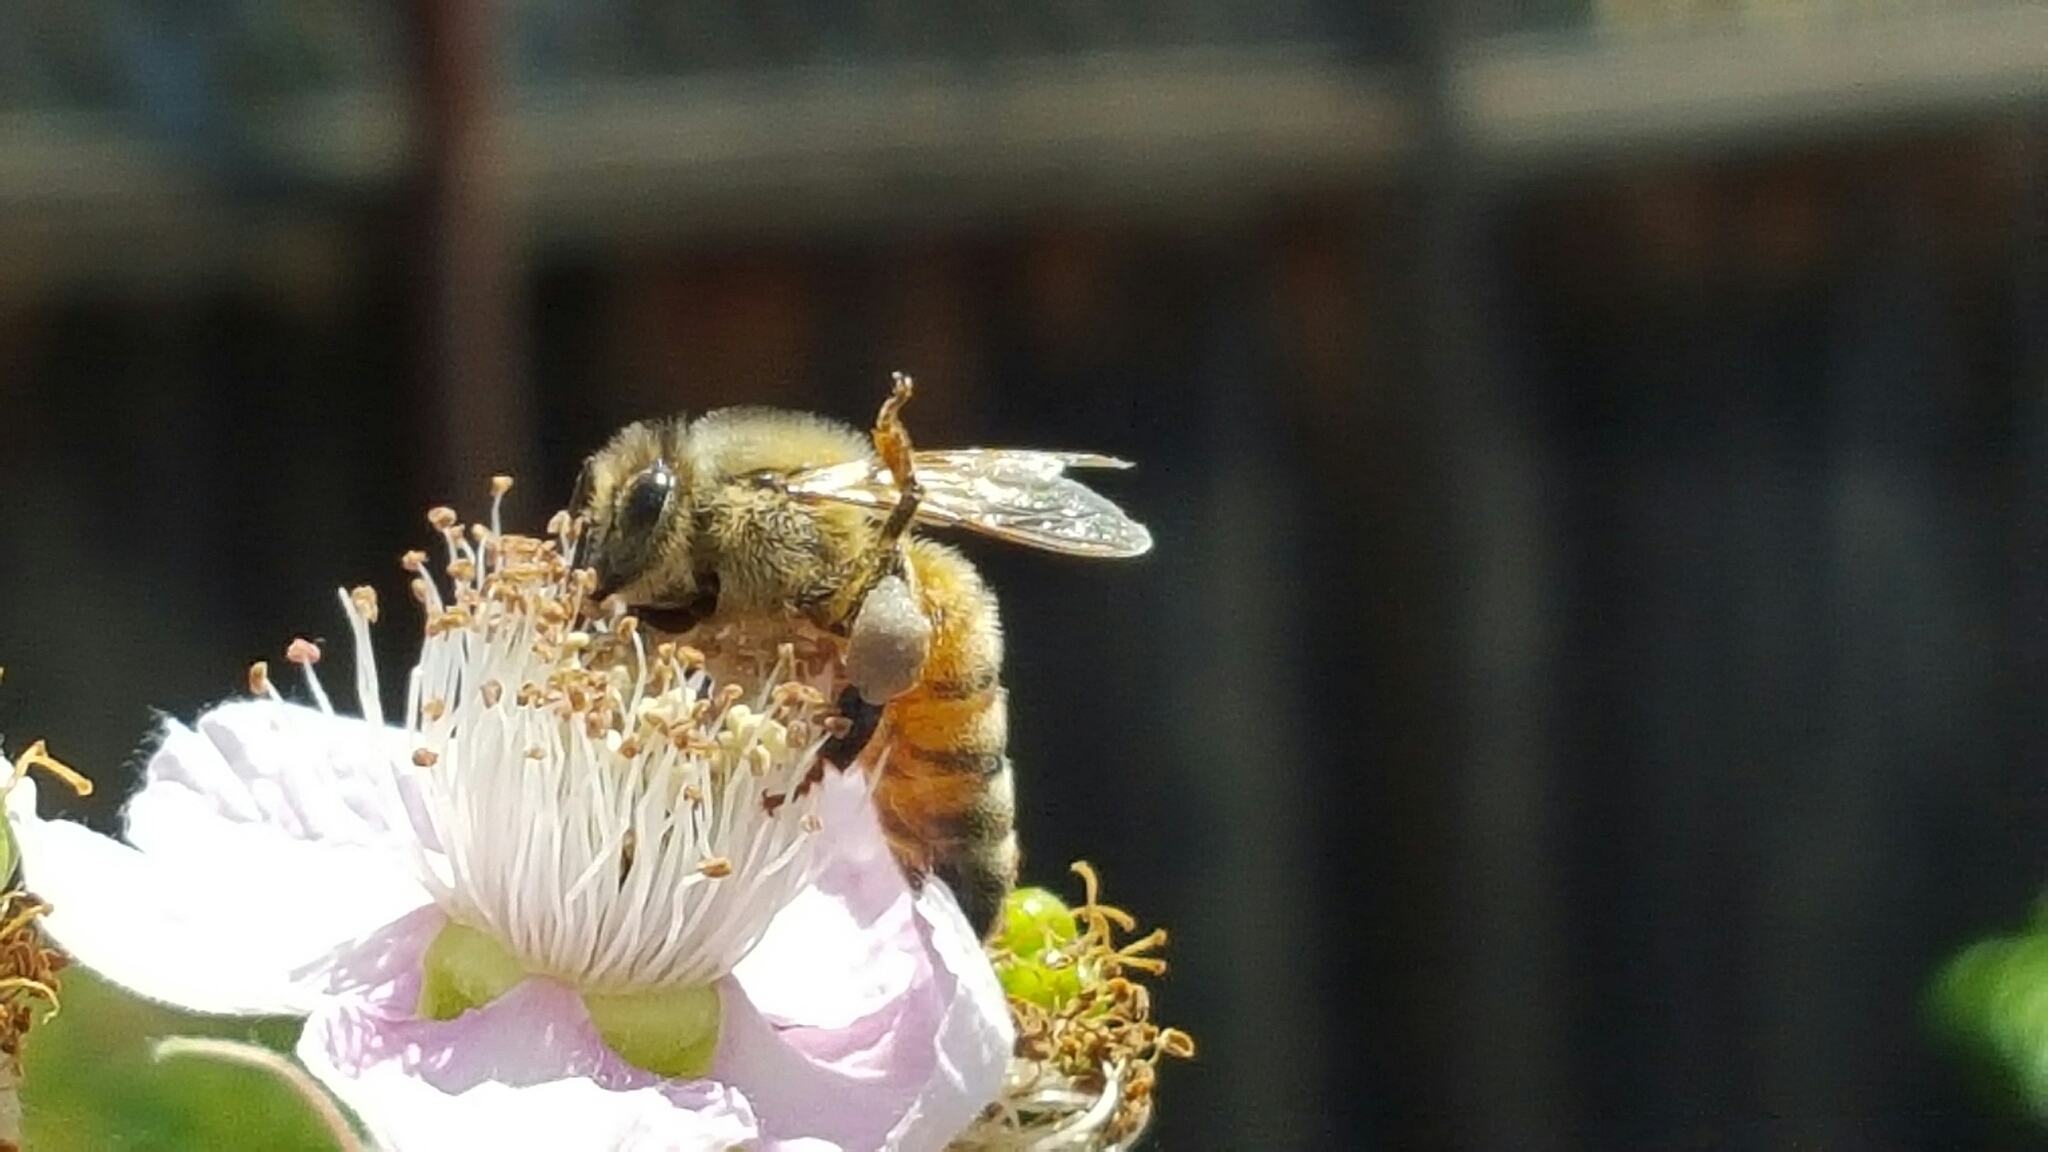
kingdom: Animalia
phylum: Arthropoda
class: Insecta
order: Hymenoptera
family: Apidae
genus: Apis
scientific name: Apis mellifera
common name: Honey bee
